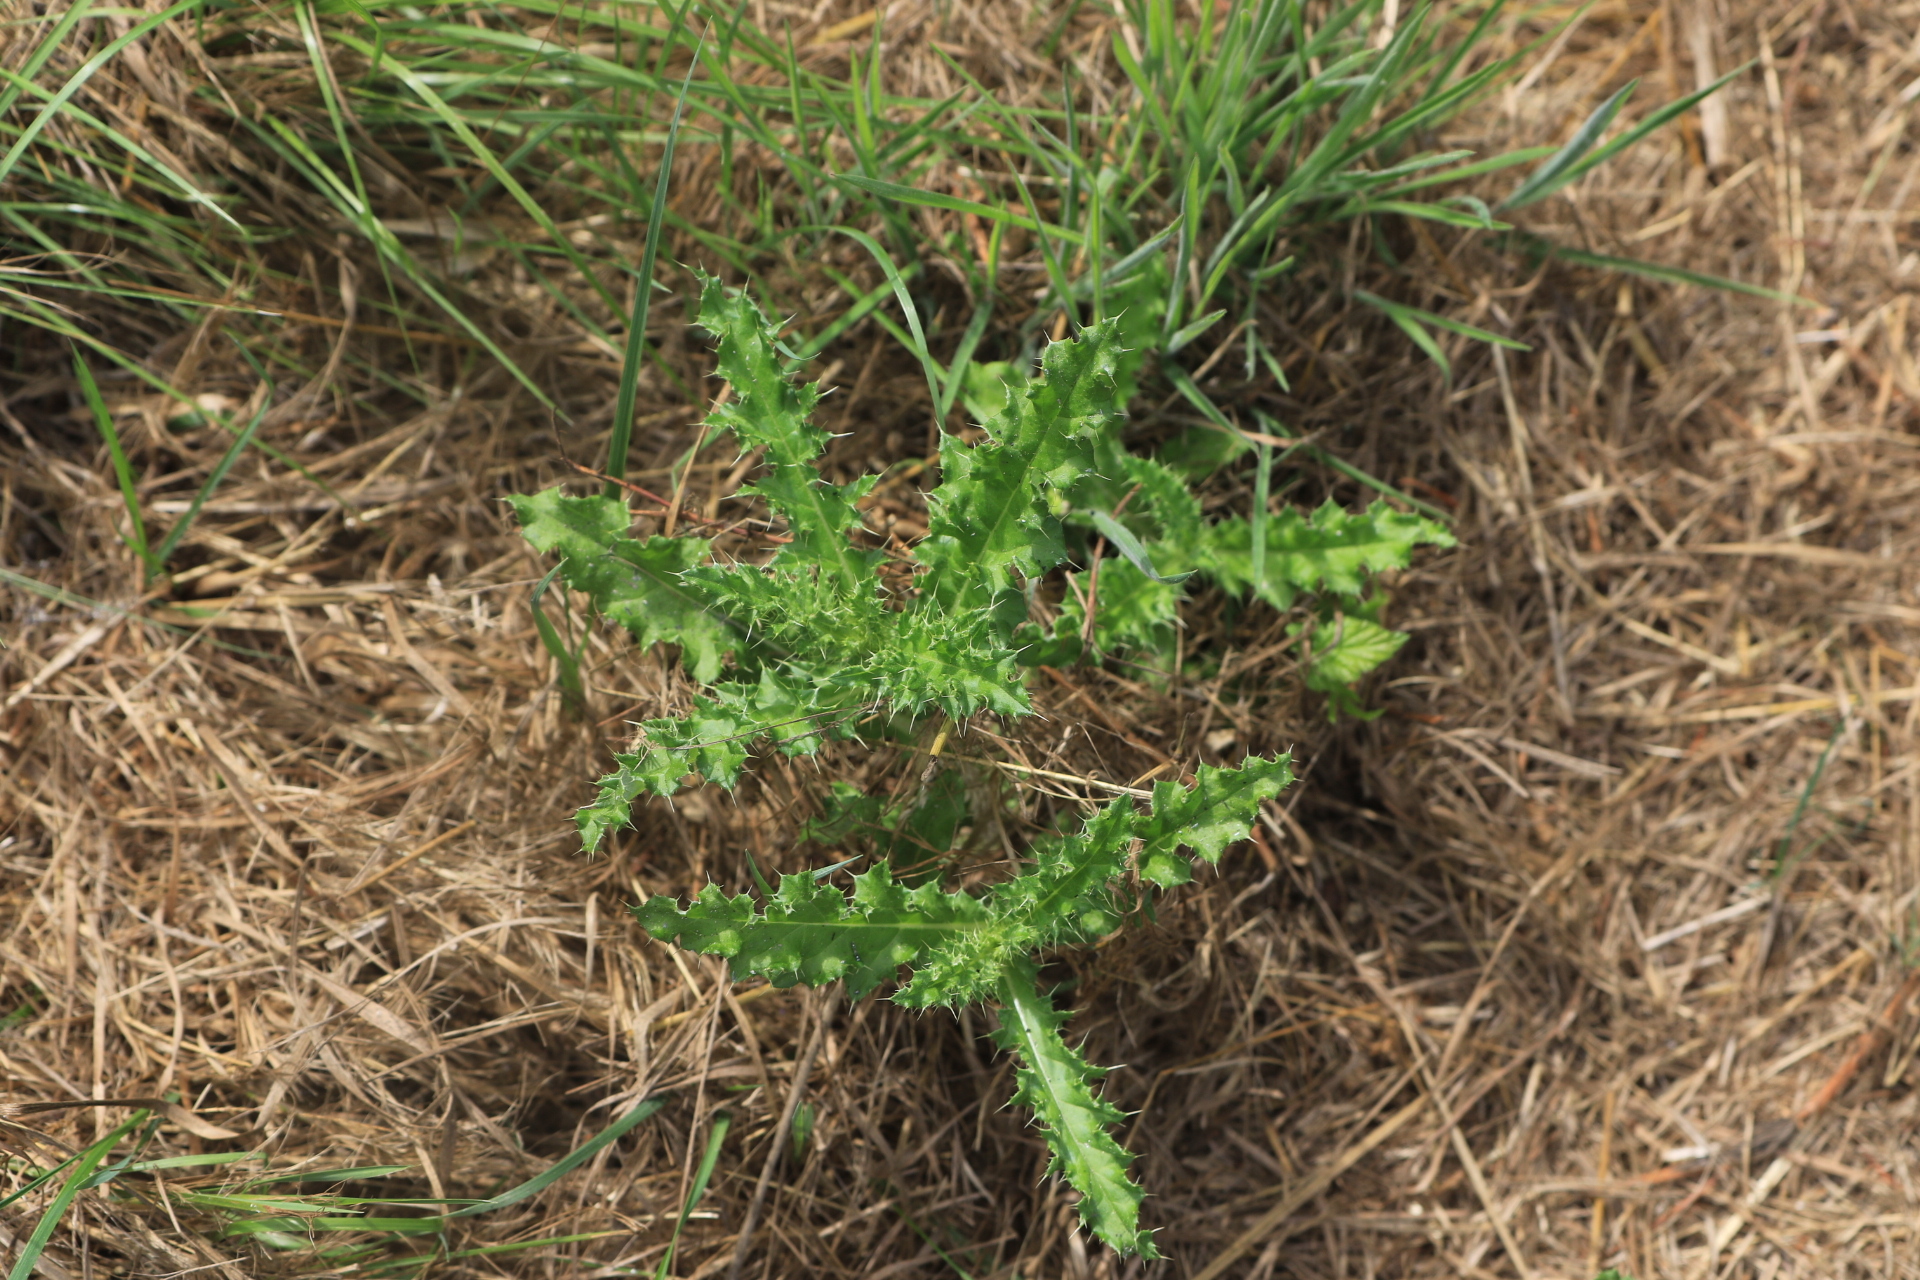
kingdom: Plantae
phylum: Tracheophyta
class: Magnoliopsida
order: Asterales
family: Asteraceae
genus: Cirsium
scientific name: Cirsium arvense
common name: Creeping thistle
